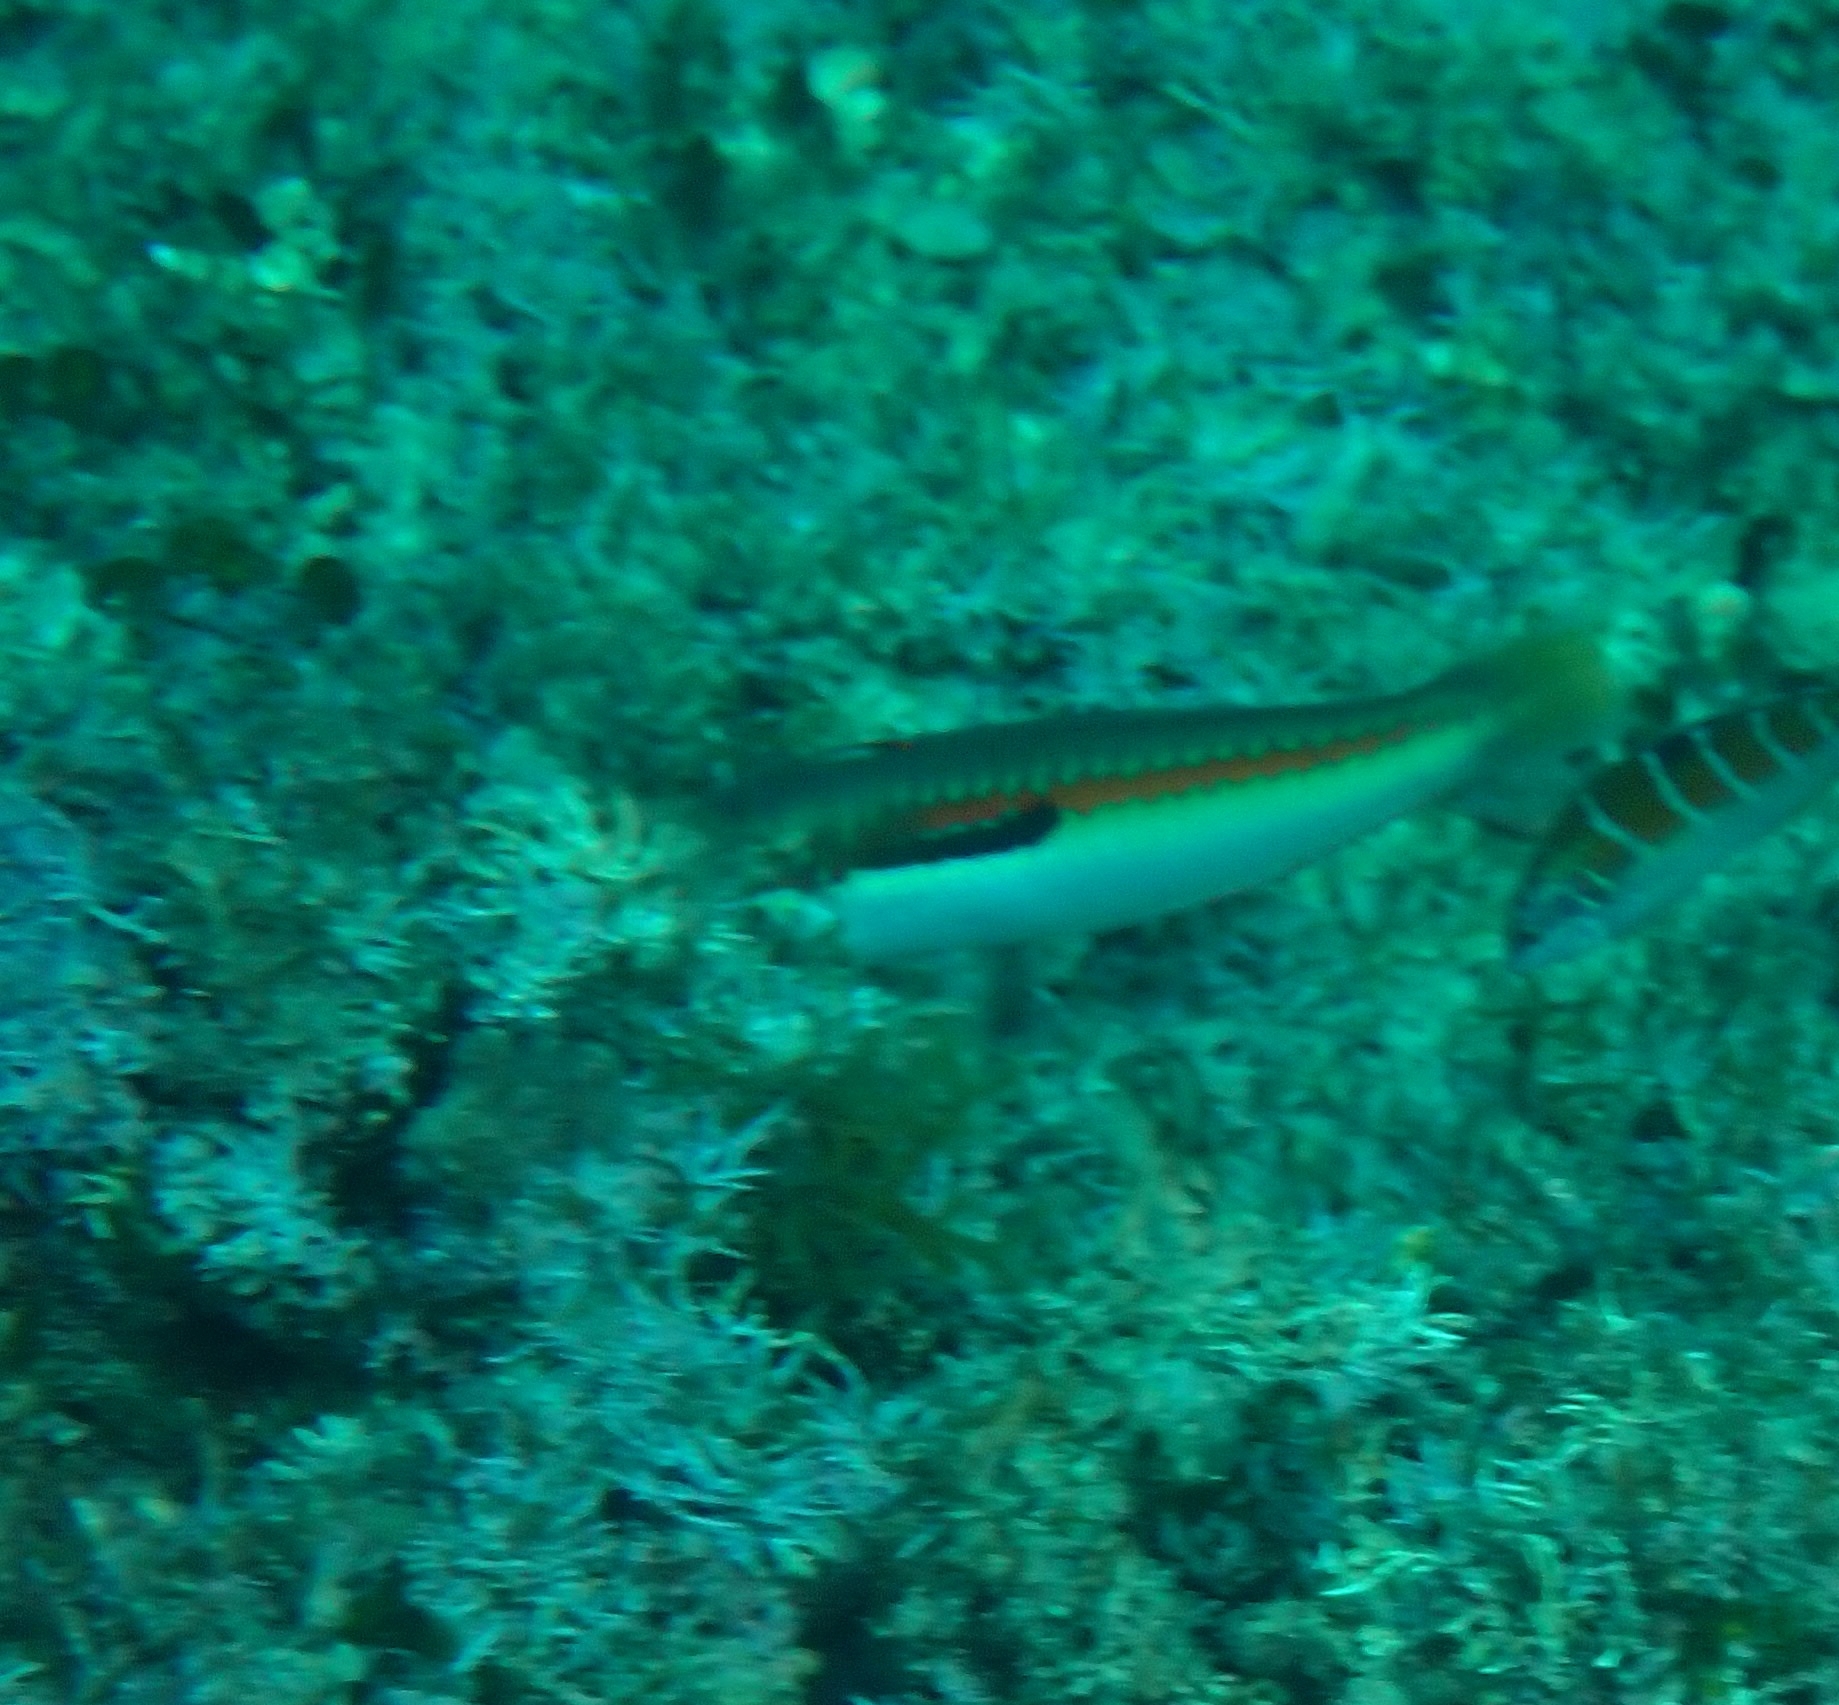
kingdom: Animalia
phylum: Chordata
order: Perciformes
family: Labridae
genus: Coris
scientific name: Coris julis
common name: Rainbow wrasse
